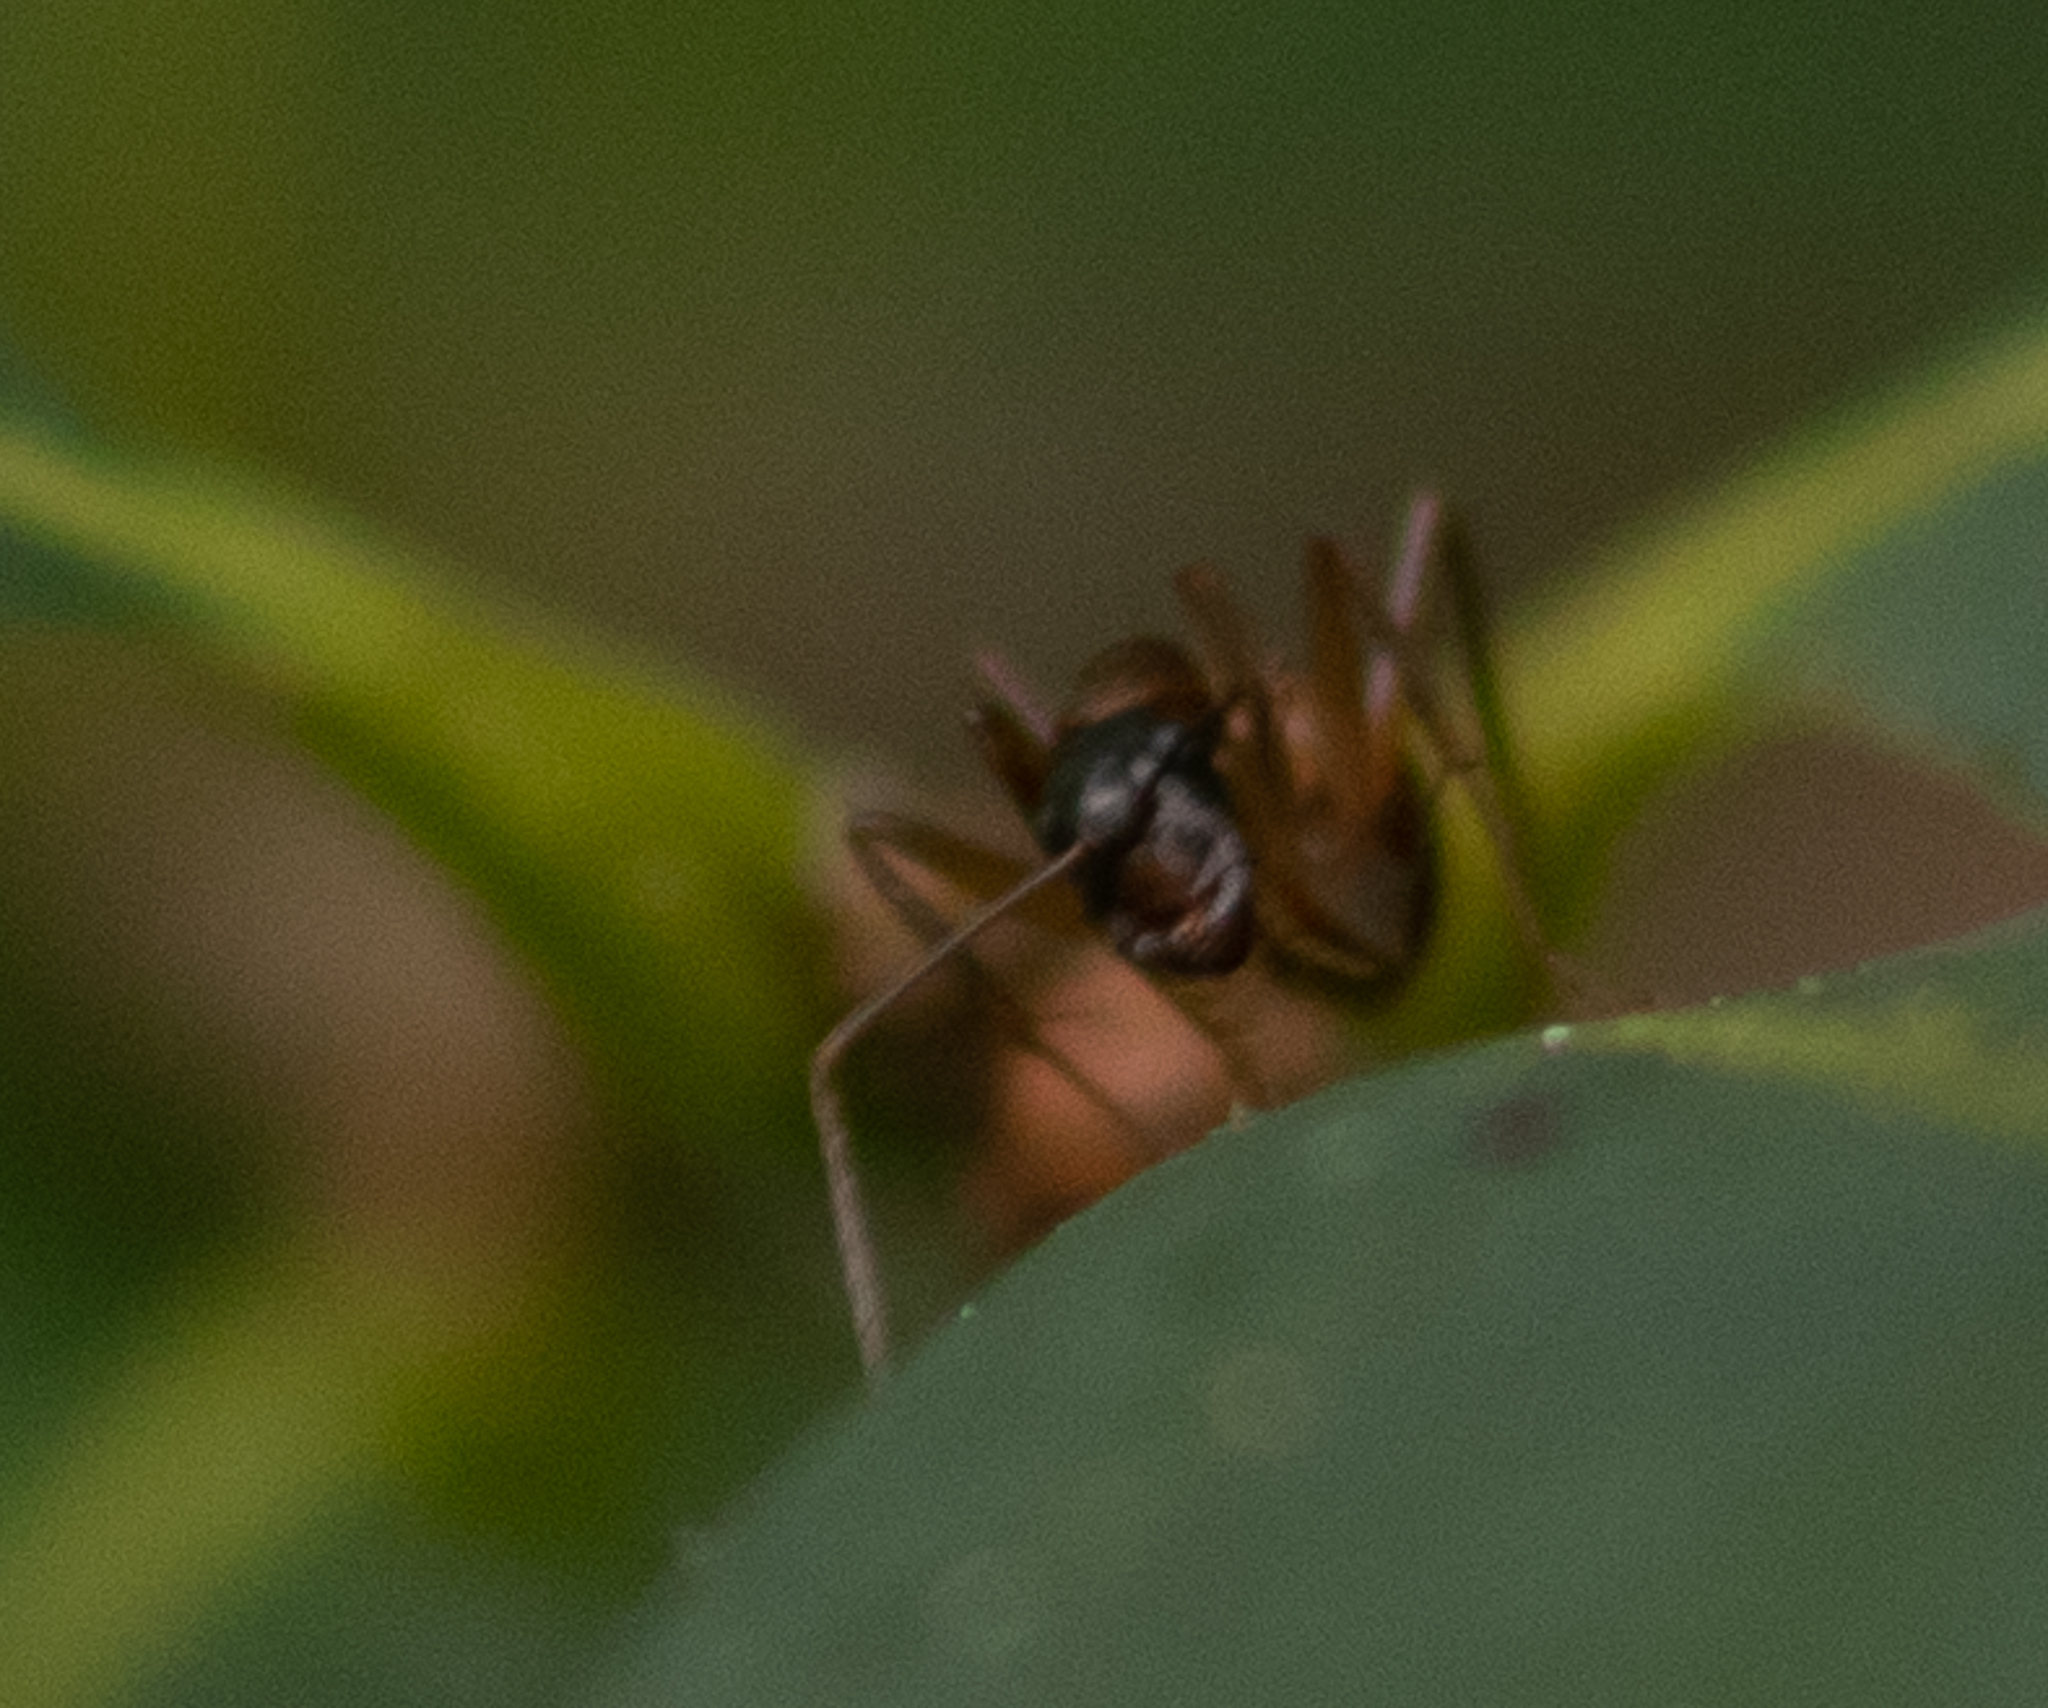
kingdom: Animalia
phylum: Arthropoda
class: Insecta
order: Hymenoptera
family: Formicidae
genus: Camponotus
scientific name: Camponotus americanus
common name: American carpenter ant
